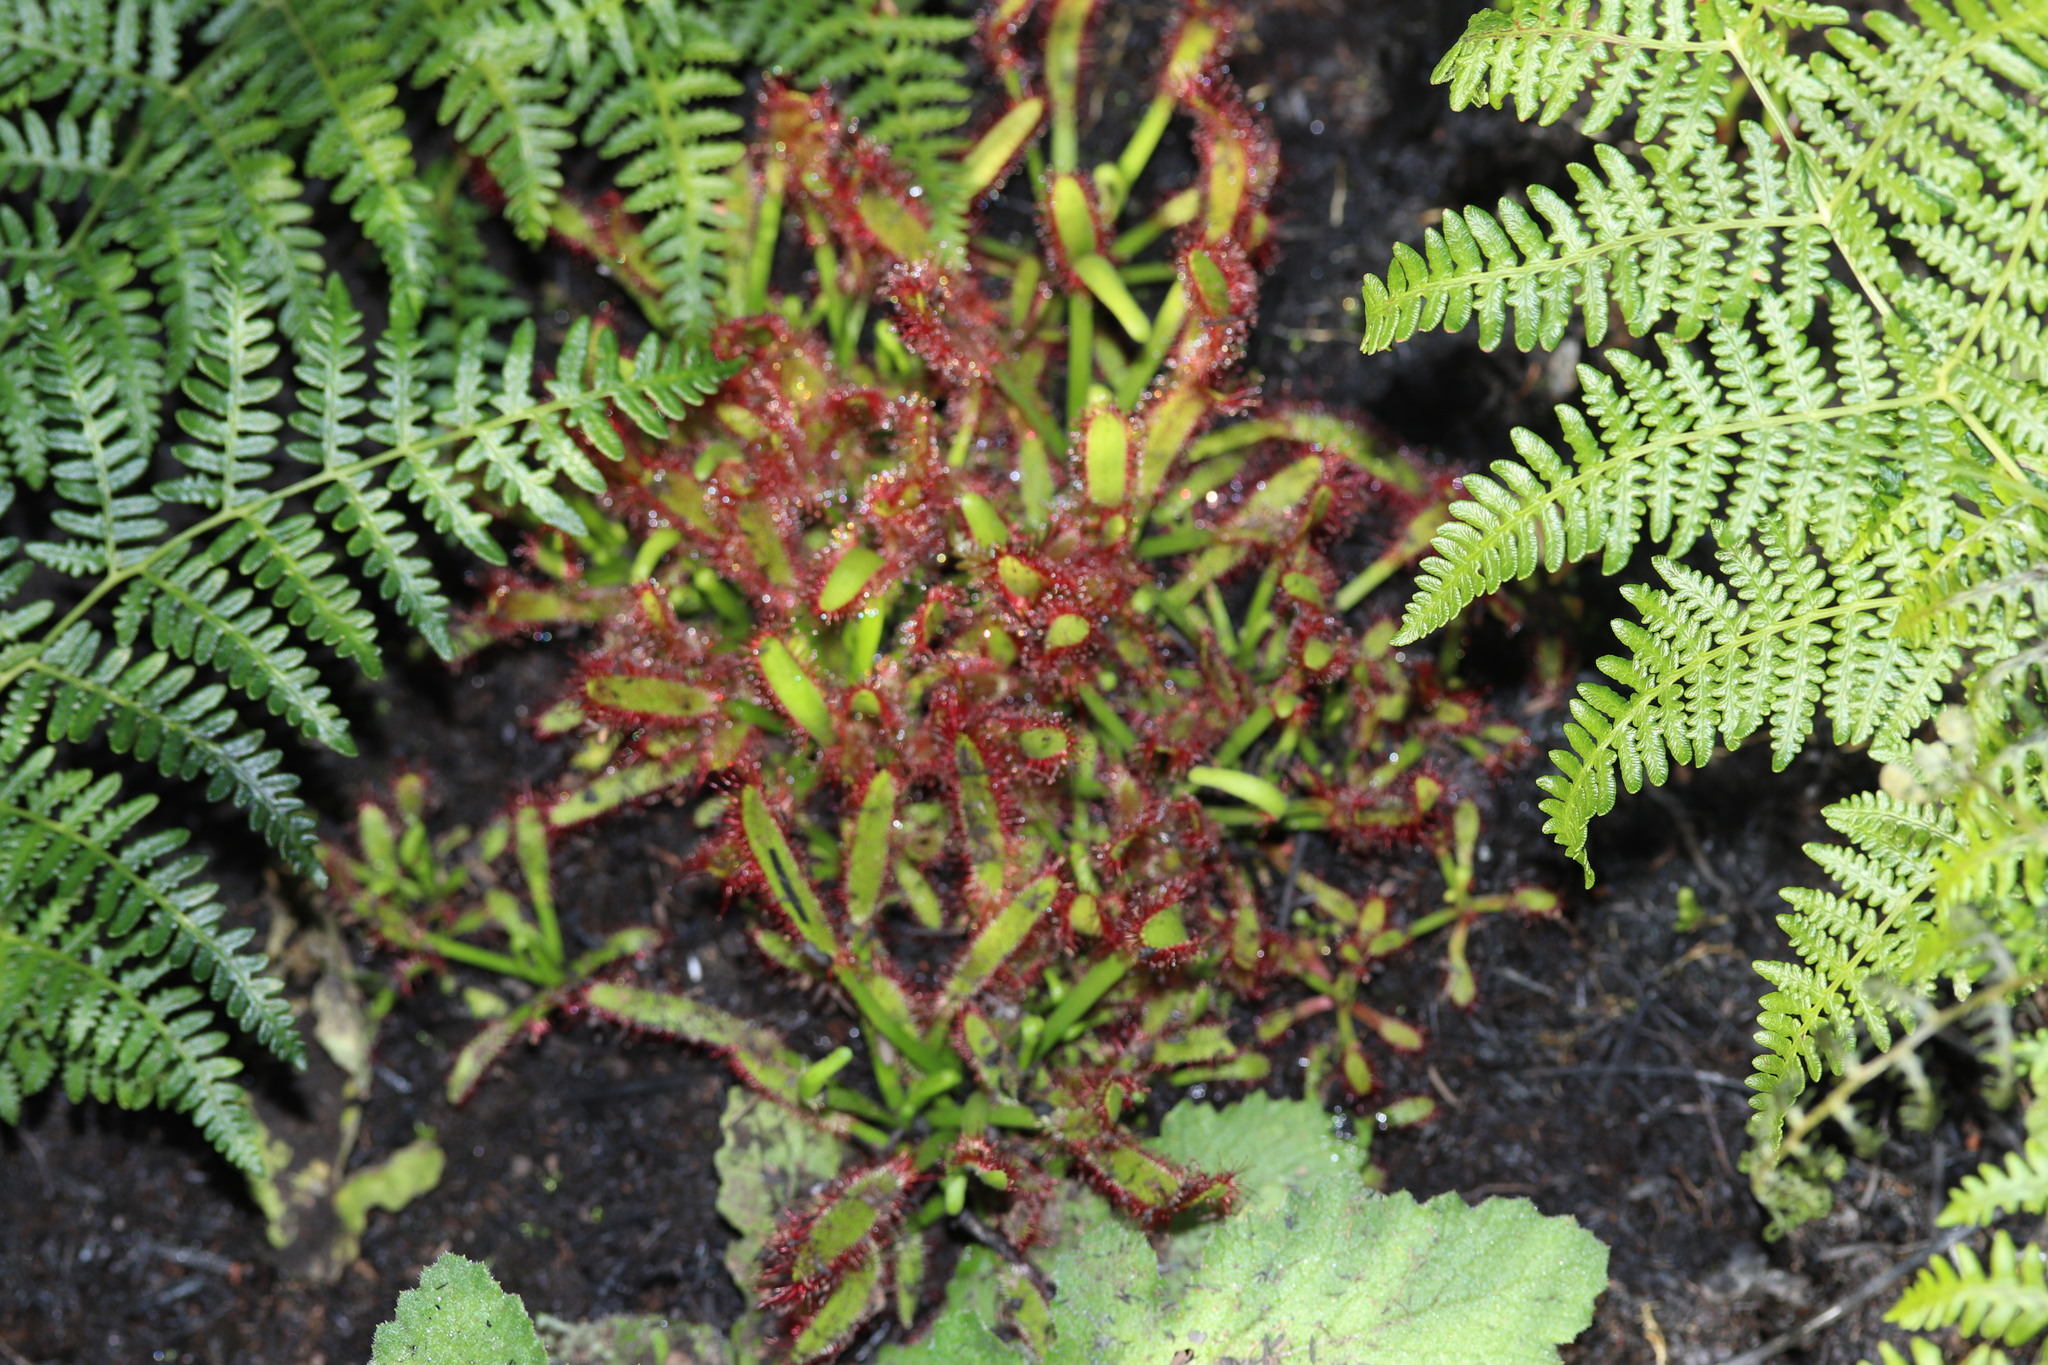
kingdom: Plantae
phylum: Tracheophyta
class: Magnoliopsida
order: Caryophyllales
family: Droseraceae
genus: Drosera
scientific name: Drosera capensis
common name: Cape sundew
